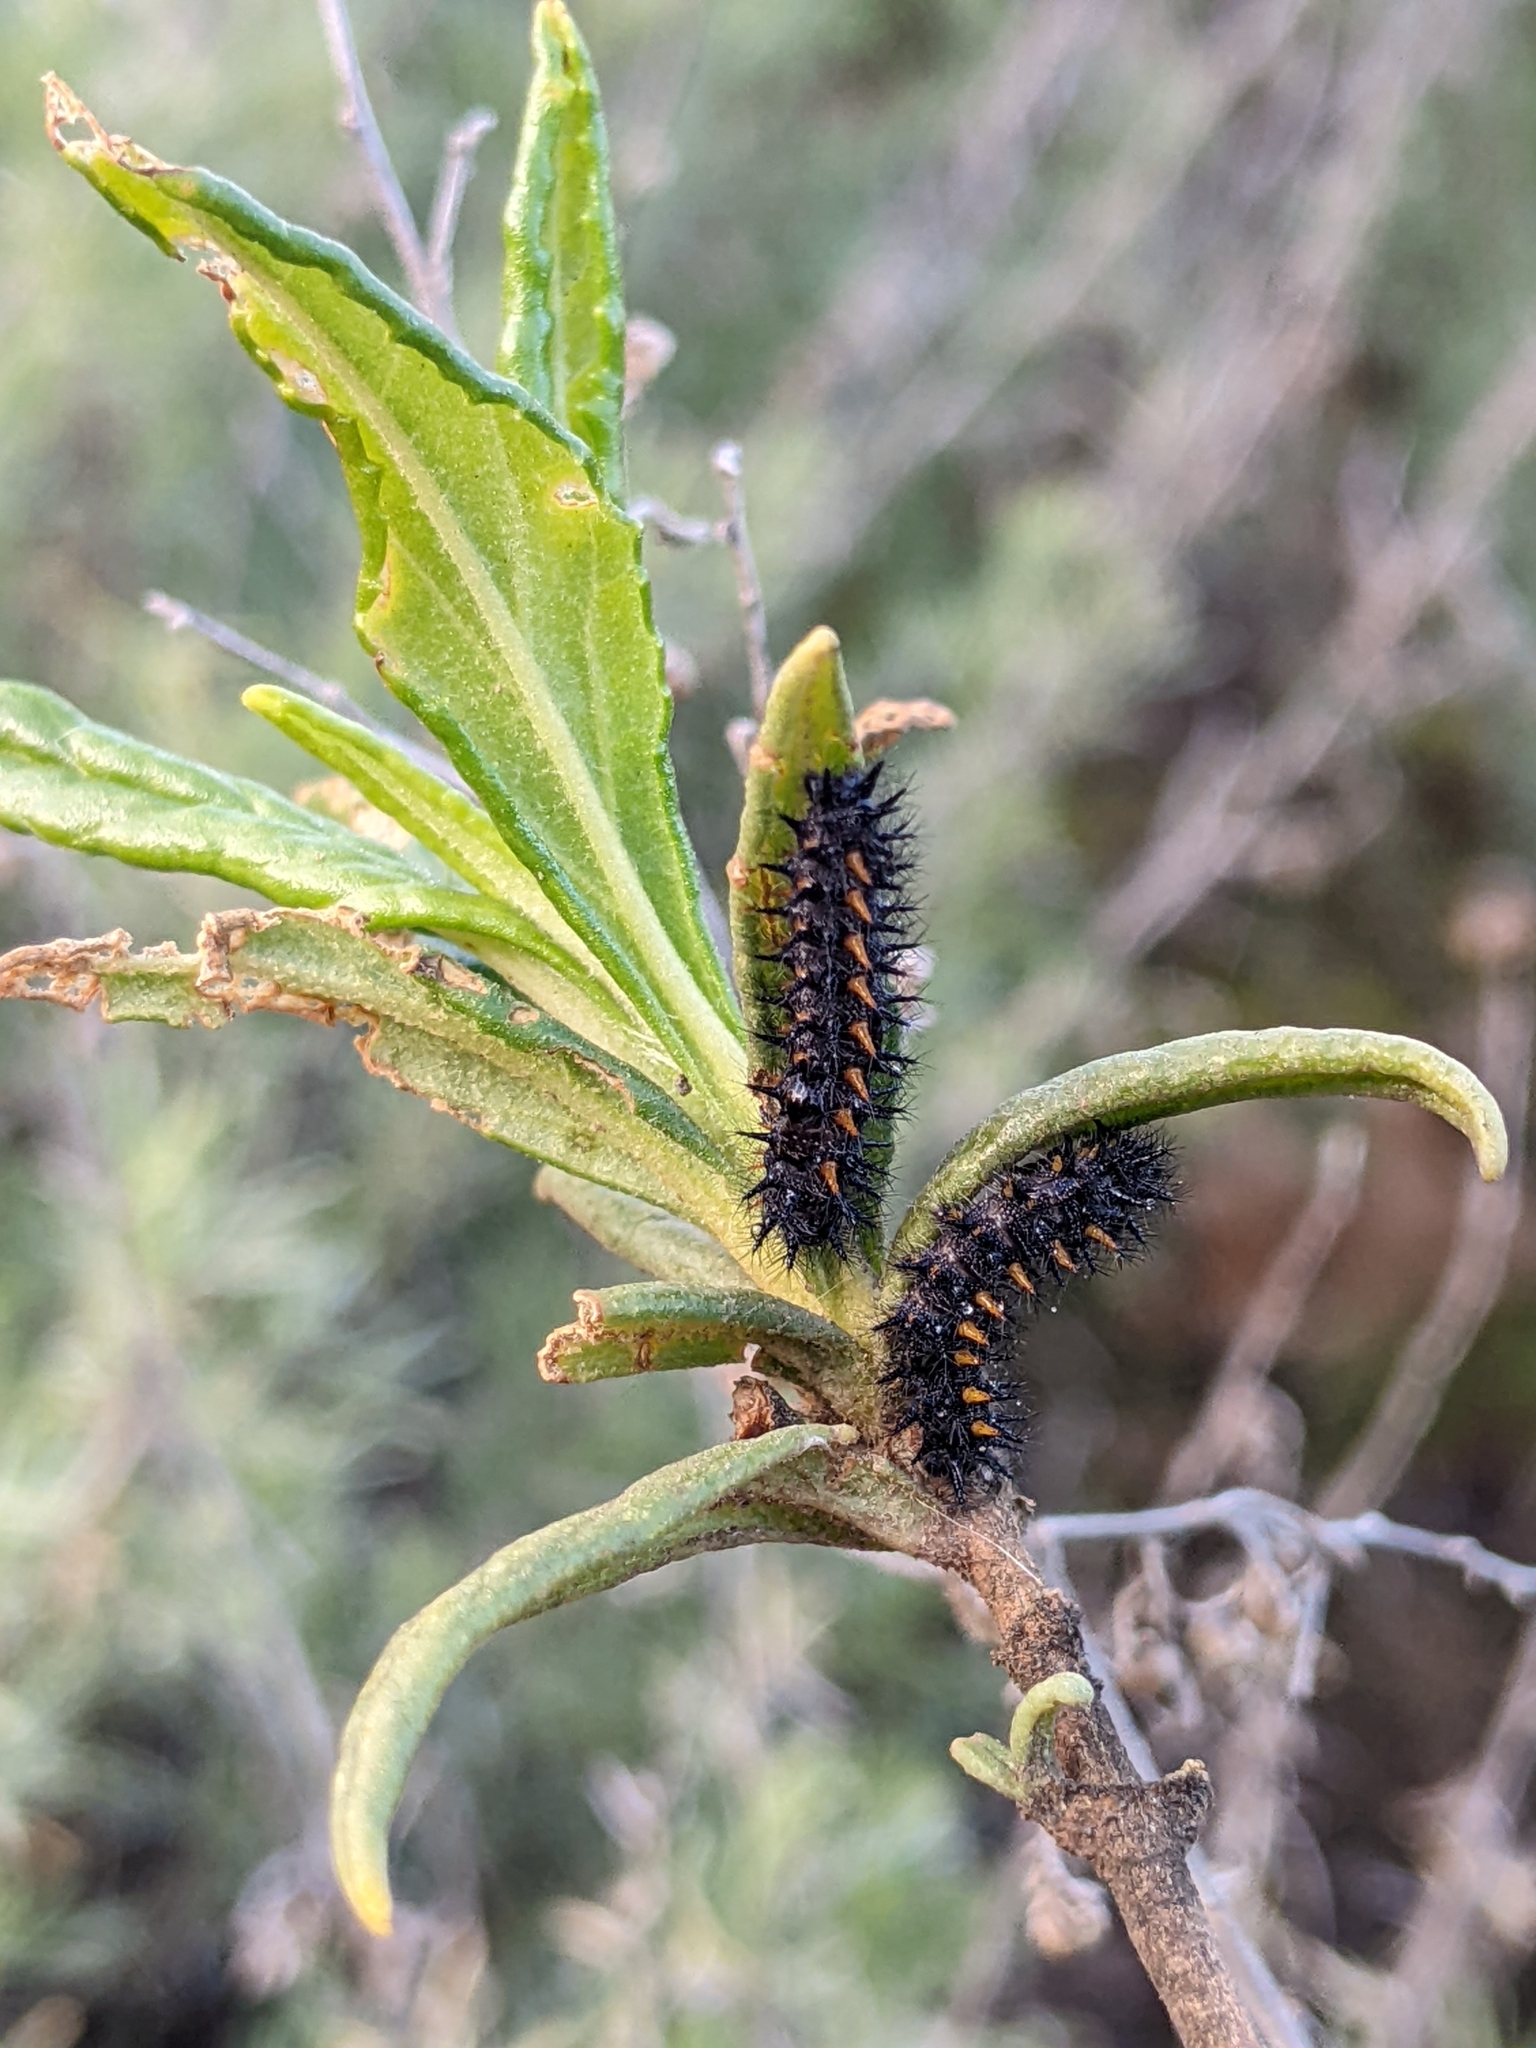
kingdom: Animalia
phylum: Arthropoda
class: Insecta
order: Lepidoptera
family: Nymphalidae
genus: Occidryas
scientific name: Occidryas chalcedona
